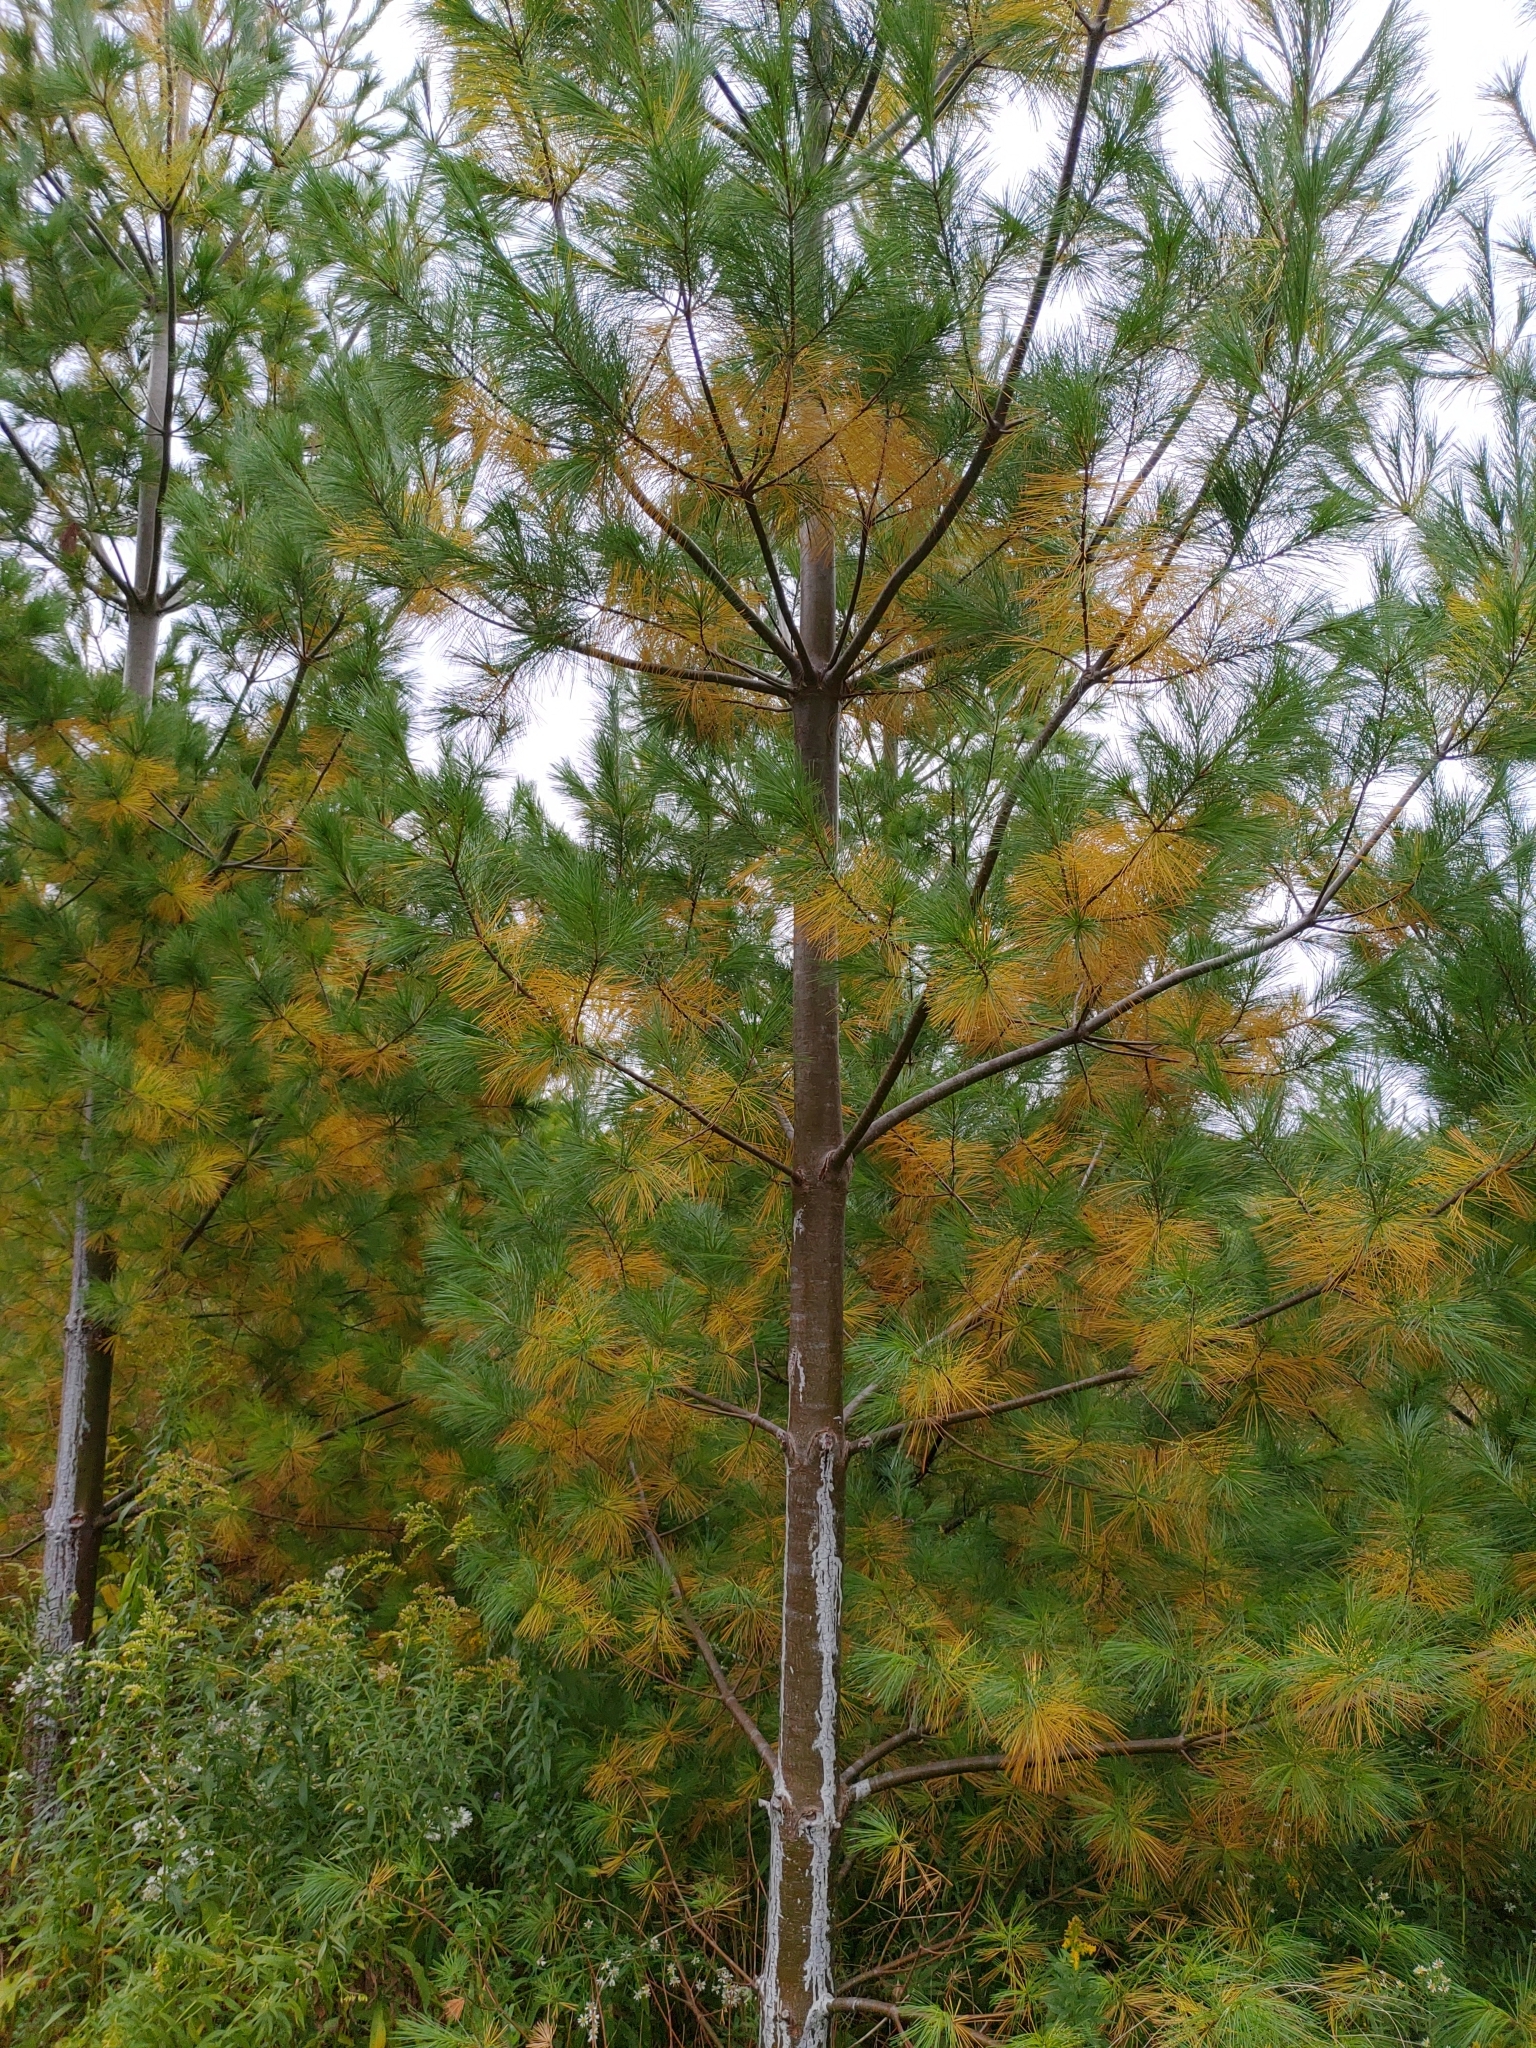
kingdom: Plantae
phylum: Tracheophyta
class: Pinopsida
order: Pinales
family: Pinaceae
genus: Pinus
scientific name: Pinus strobus
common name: Weymouth pine
